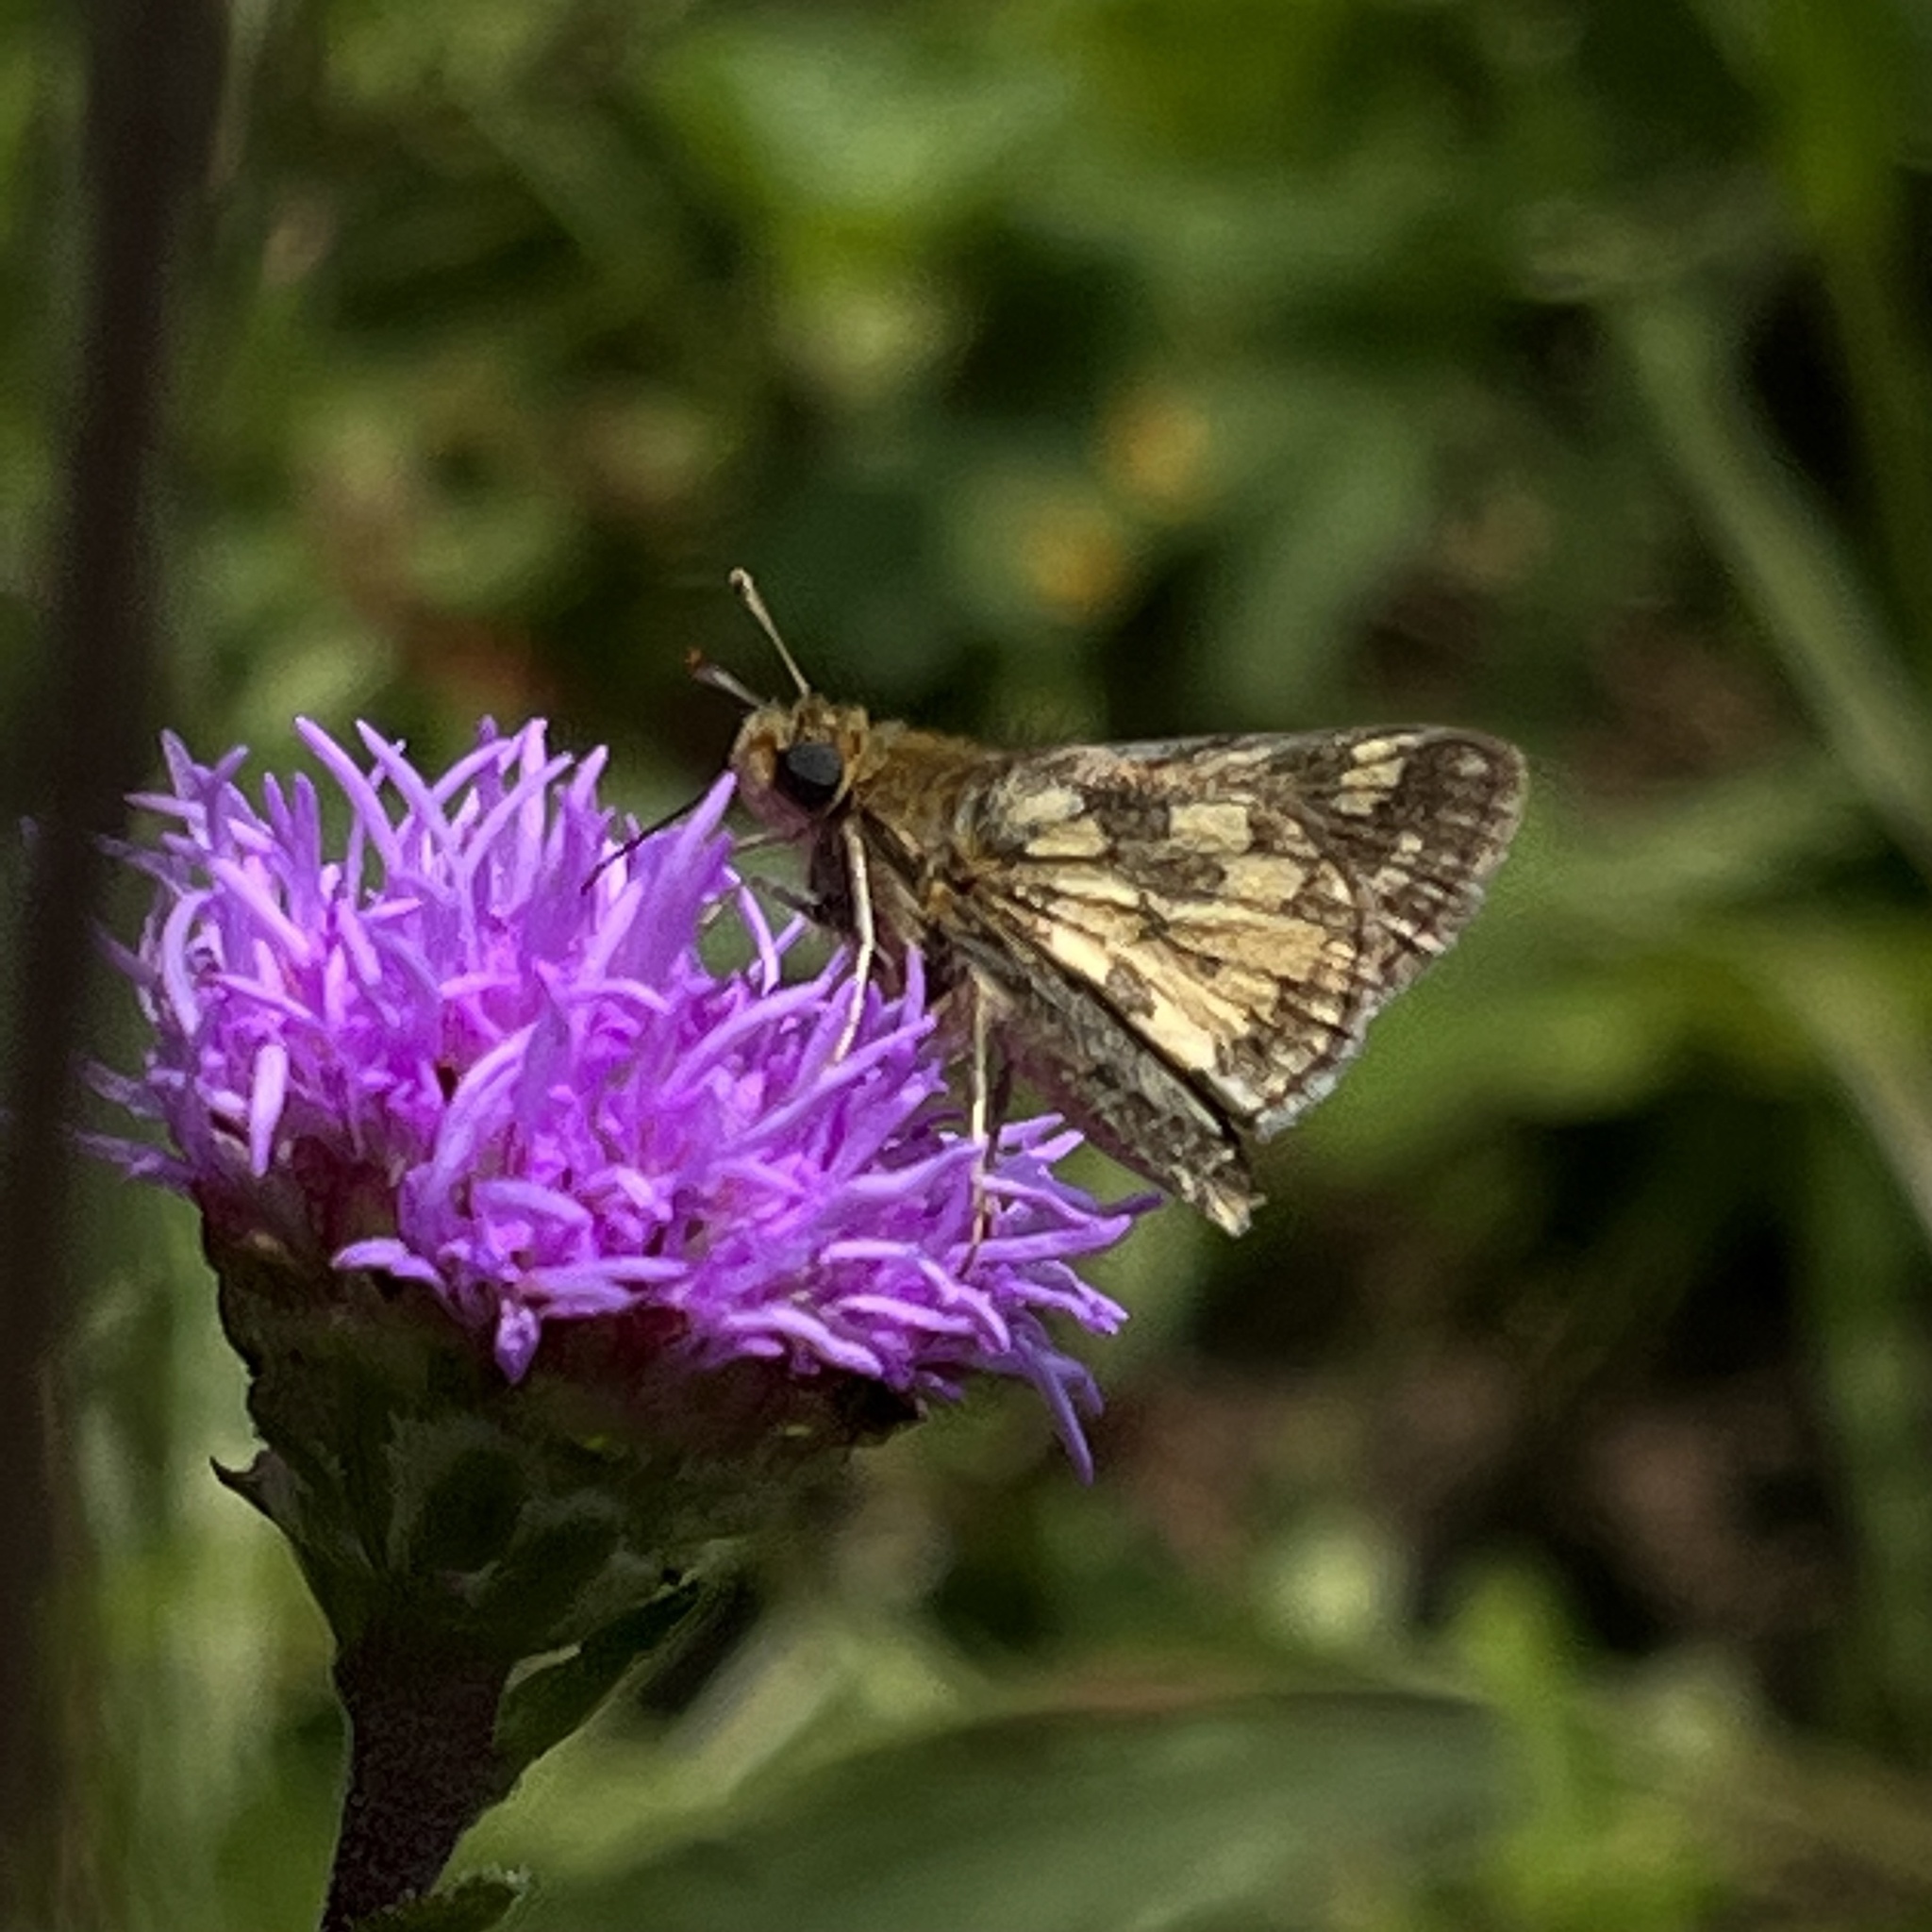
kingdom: Animalia
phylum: Arthropoda
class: Insecta
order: Lepidoptera
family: Hesperiidae
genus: Polites
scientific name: Polites coras
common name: Peck's skipper
